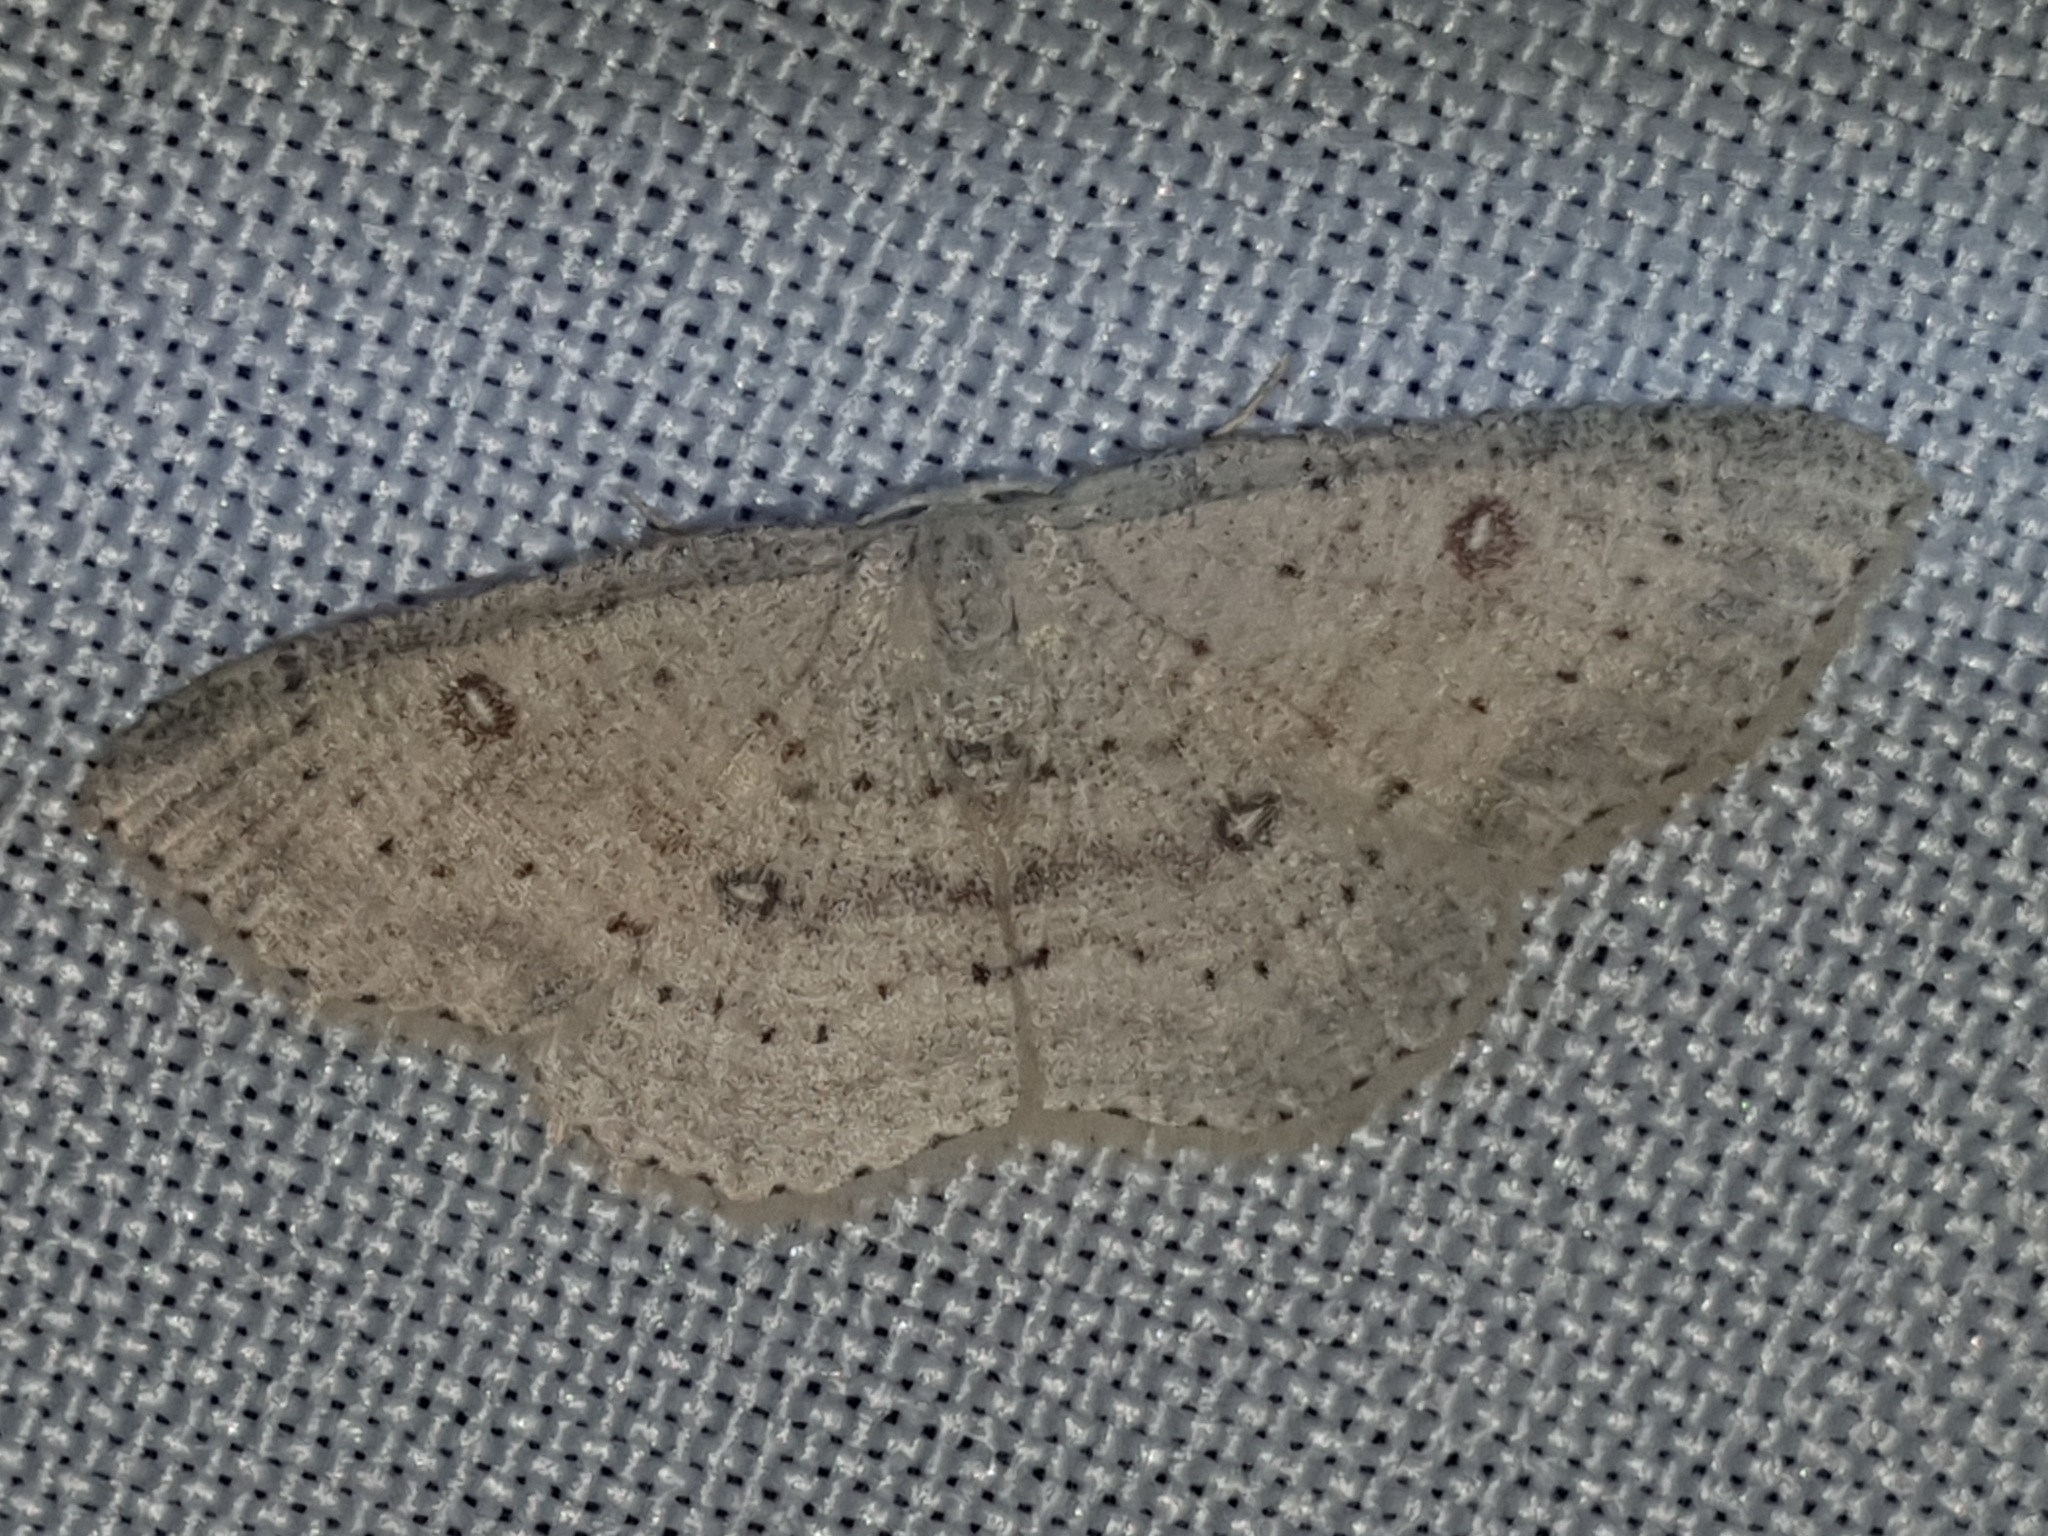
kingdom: Animalia
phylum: Arthropoda
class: Insecta
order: Lepidoptera
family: Geometridae
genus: Cyclophora
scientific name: Cyclophora albipunctata
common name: Birch mocha
